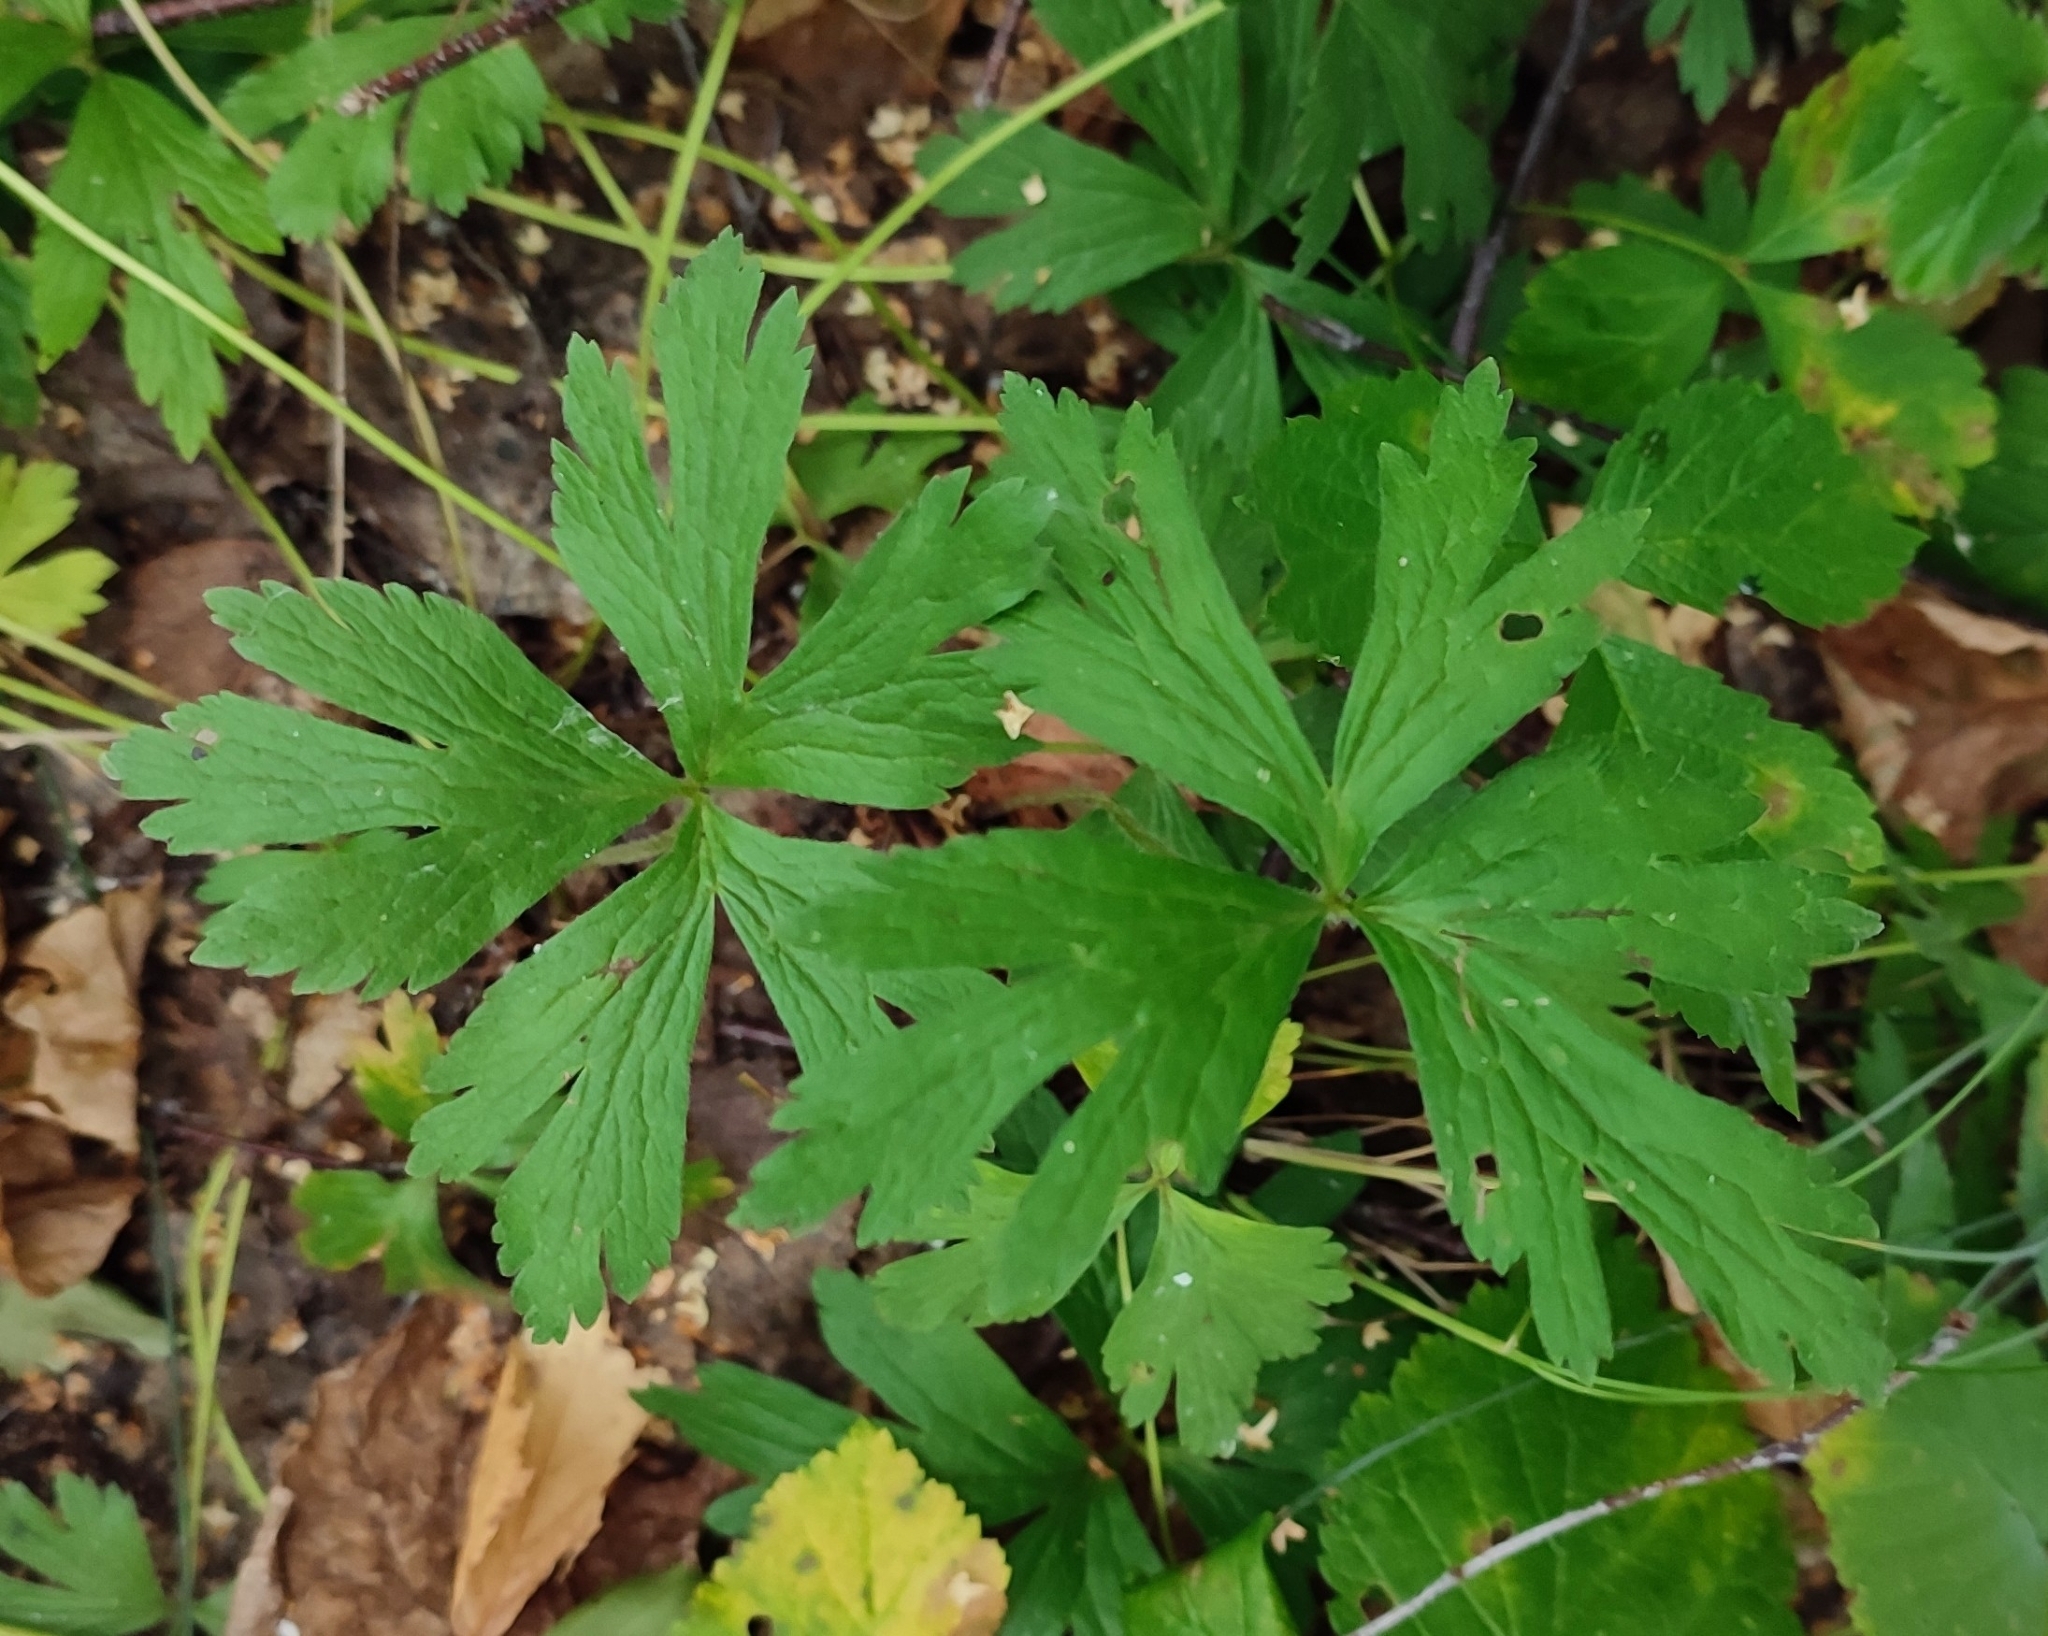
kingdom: Plantae
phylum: Tracheophyta
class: Magnoliopsida
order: Ranunculales
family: Ranunculaceae
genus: Anemone
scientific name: Anemone sylvestris
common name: Snowdrop anemone
